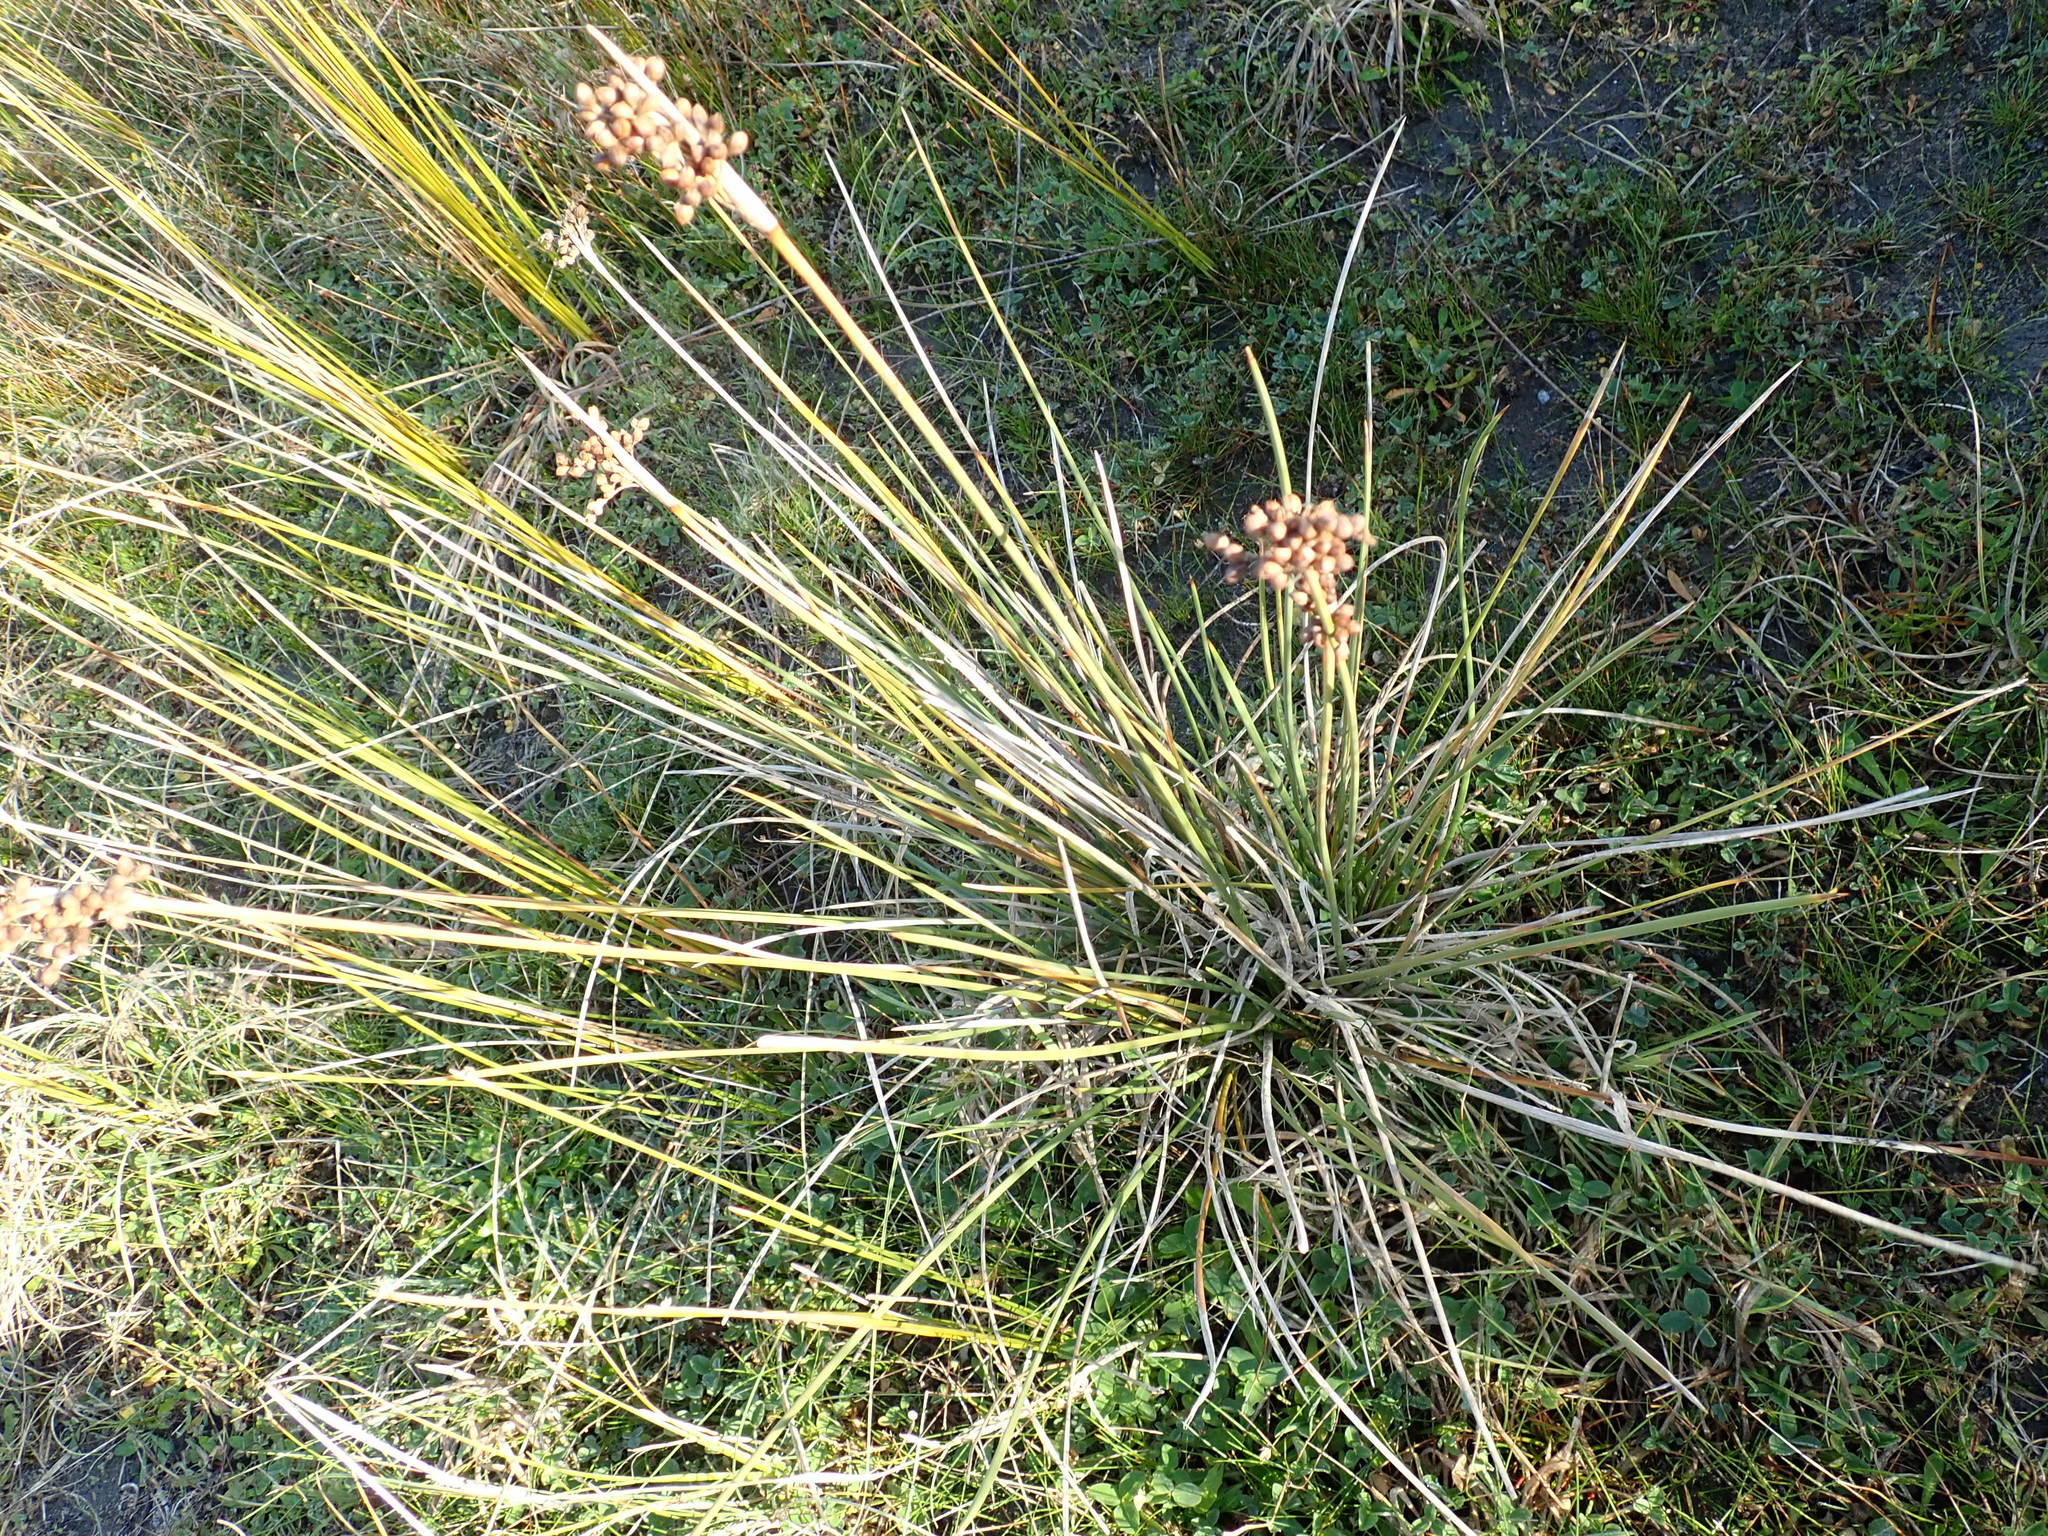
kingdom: Plantae
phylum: Tracheophyta
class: Liliopsida
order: Poales
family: Juncaceae
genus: Juncus
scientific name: Juncus acutus
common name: Sharp rush
